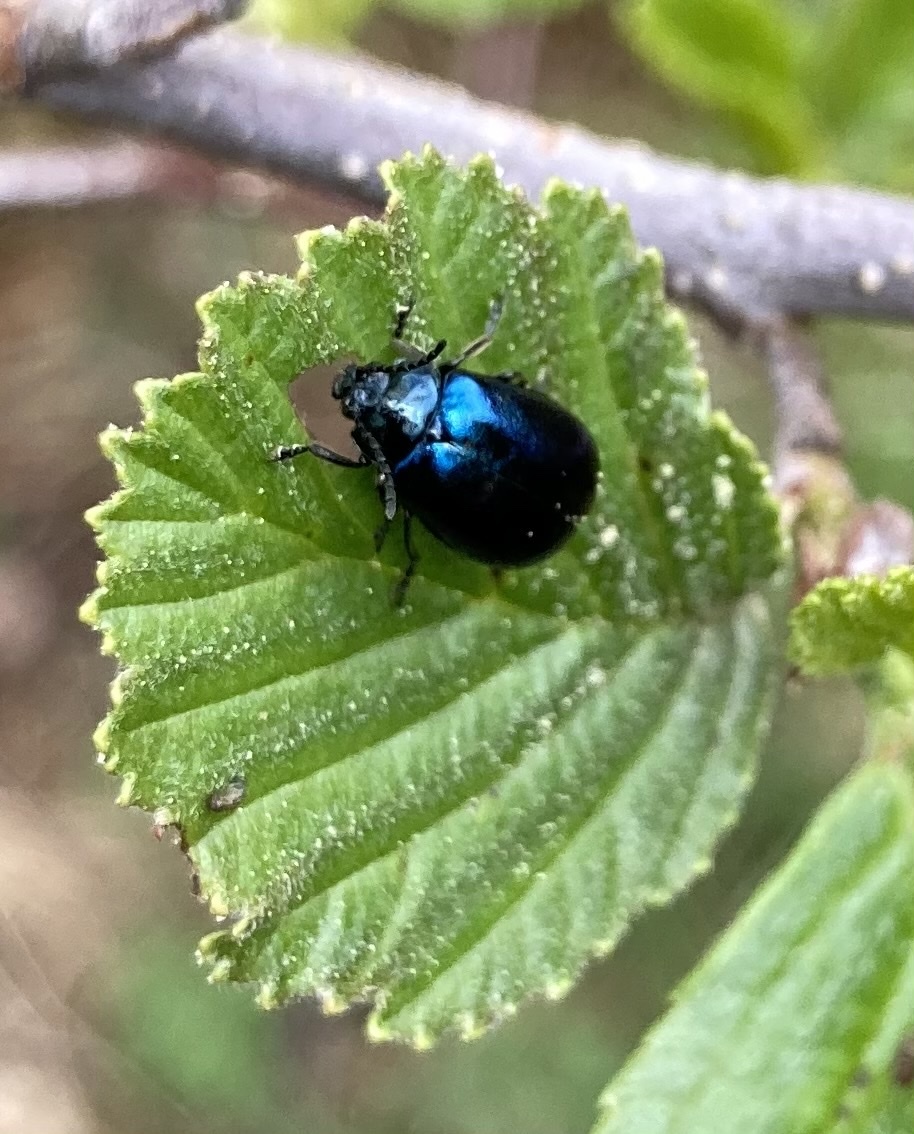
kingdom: Animalia
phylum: Arthropoda
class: Insecta
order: Coleoptera
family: Chrysomelidae
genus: Agelastica
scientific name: Agelastica alni
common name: Alder leaf beetle
